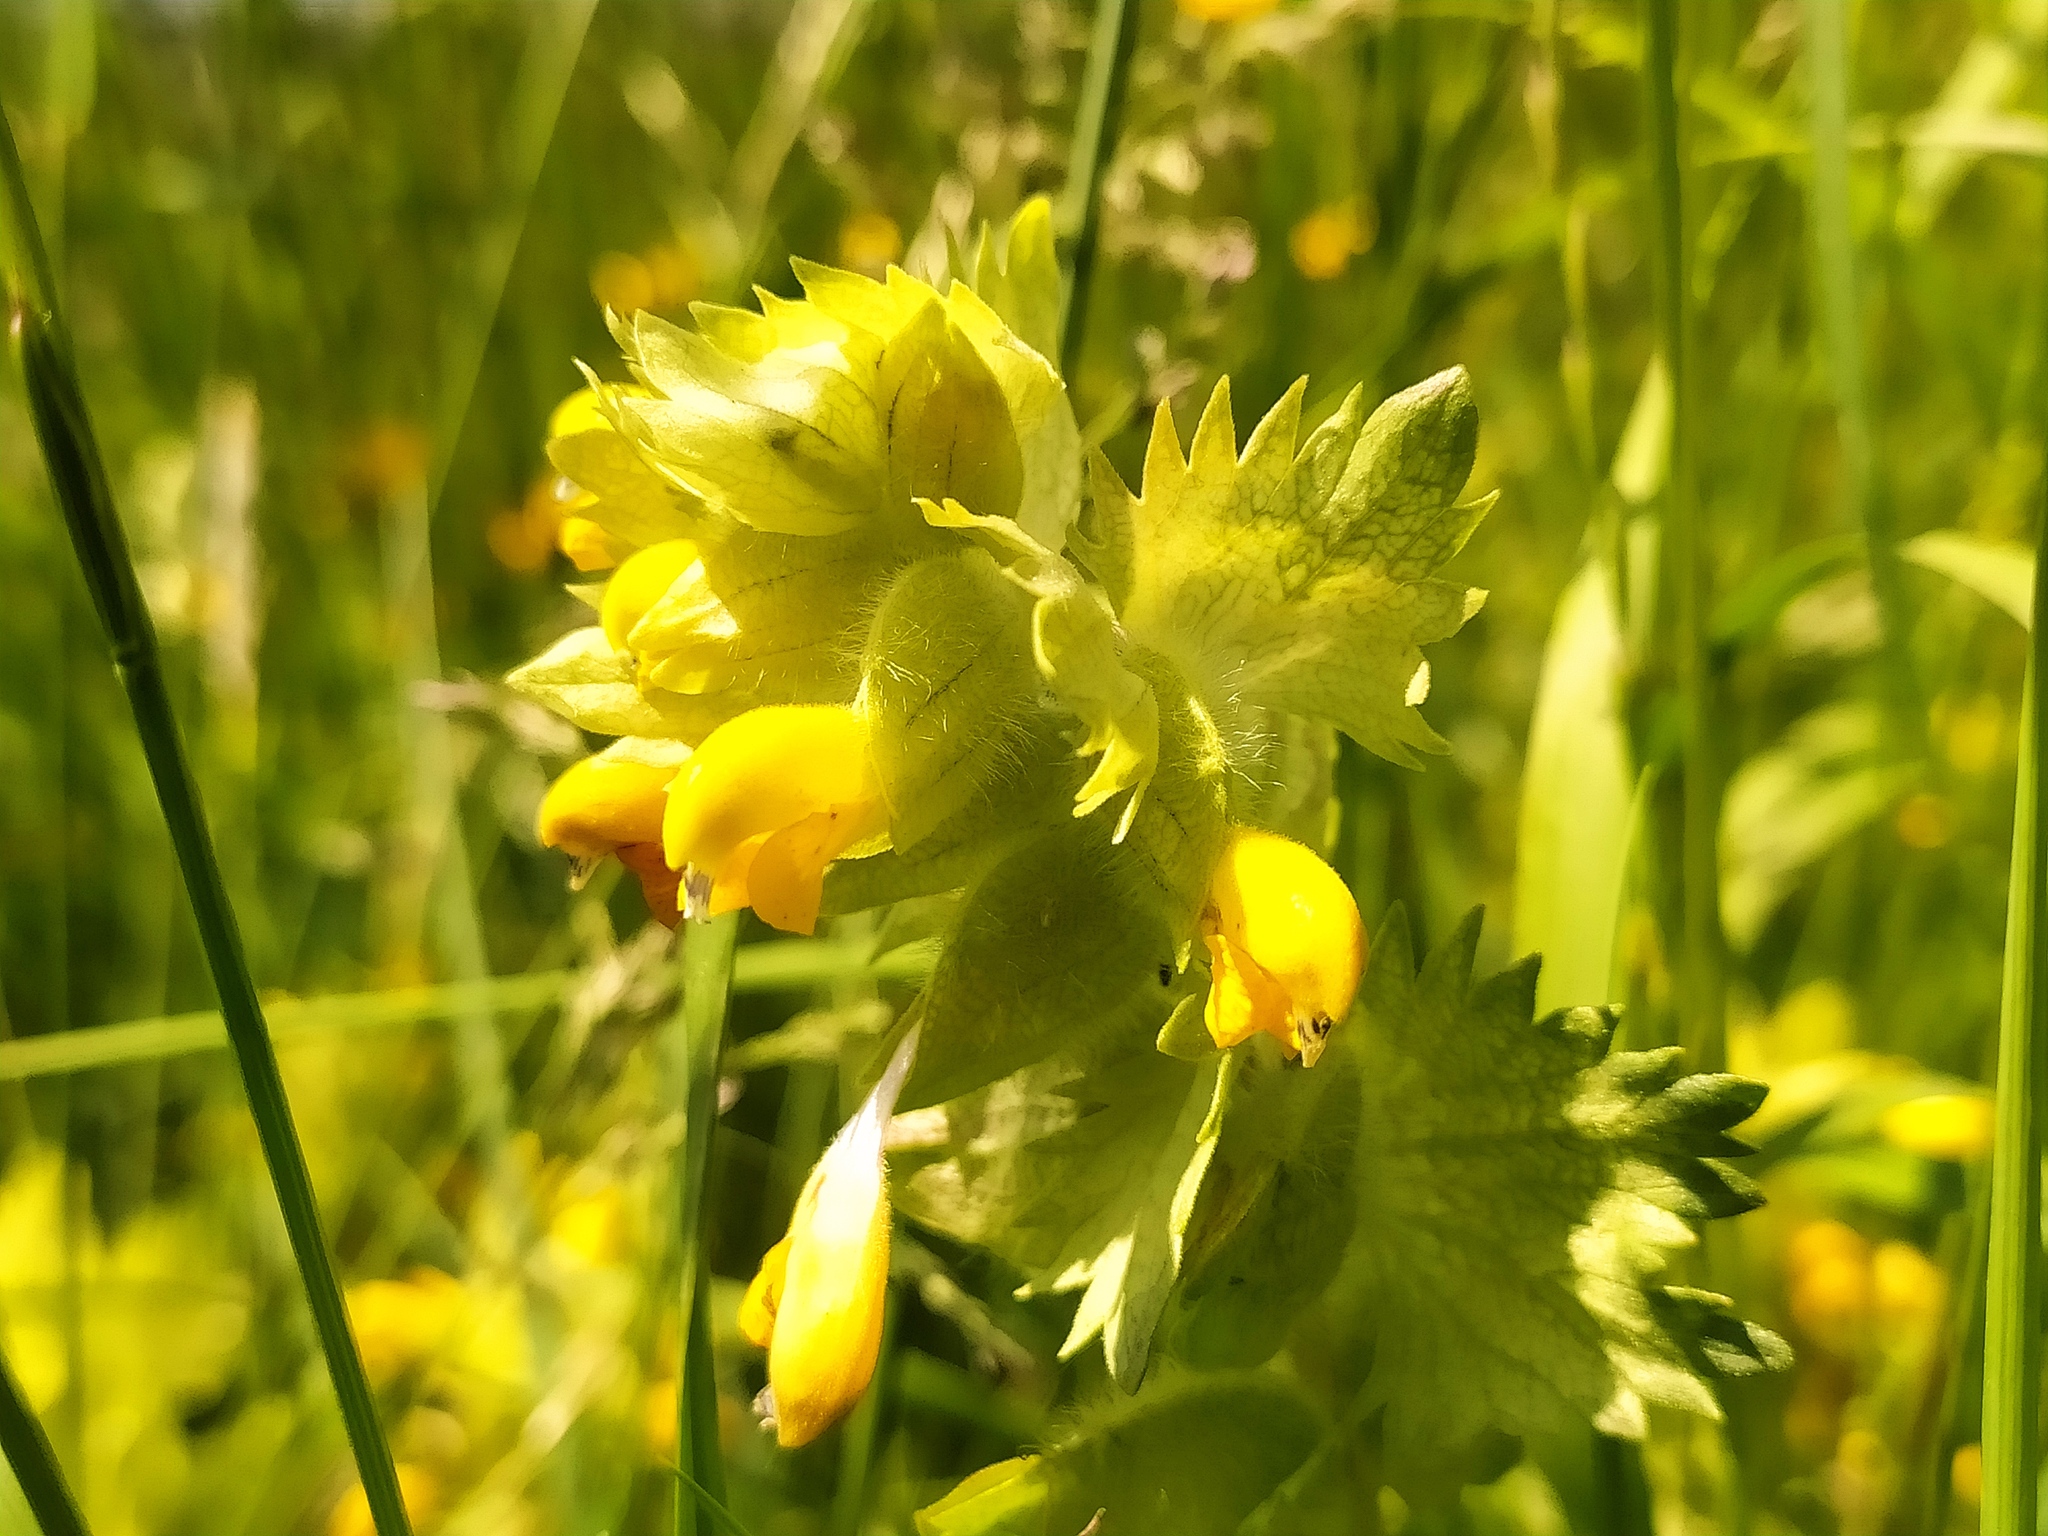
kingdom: Plantae
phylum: Tracheophyta
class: Magnoliopsida
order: Lamiales
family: Orobanchaceae
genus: Rhinanthus
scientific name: Rhinanthus alectorolophus
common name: Greater yellow-rattle
